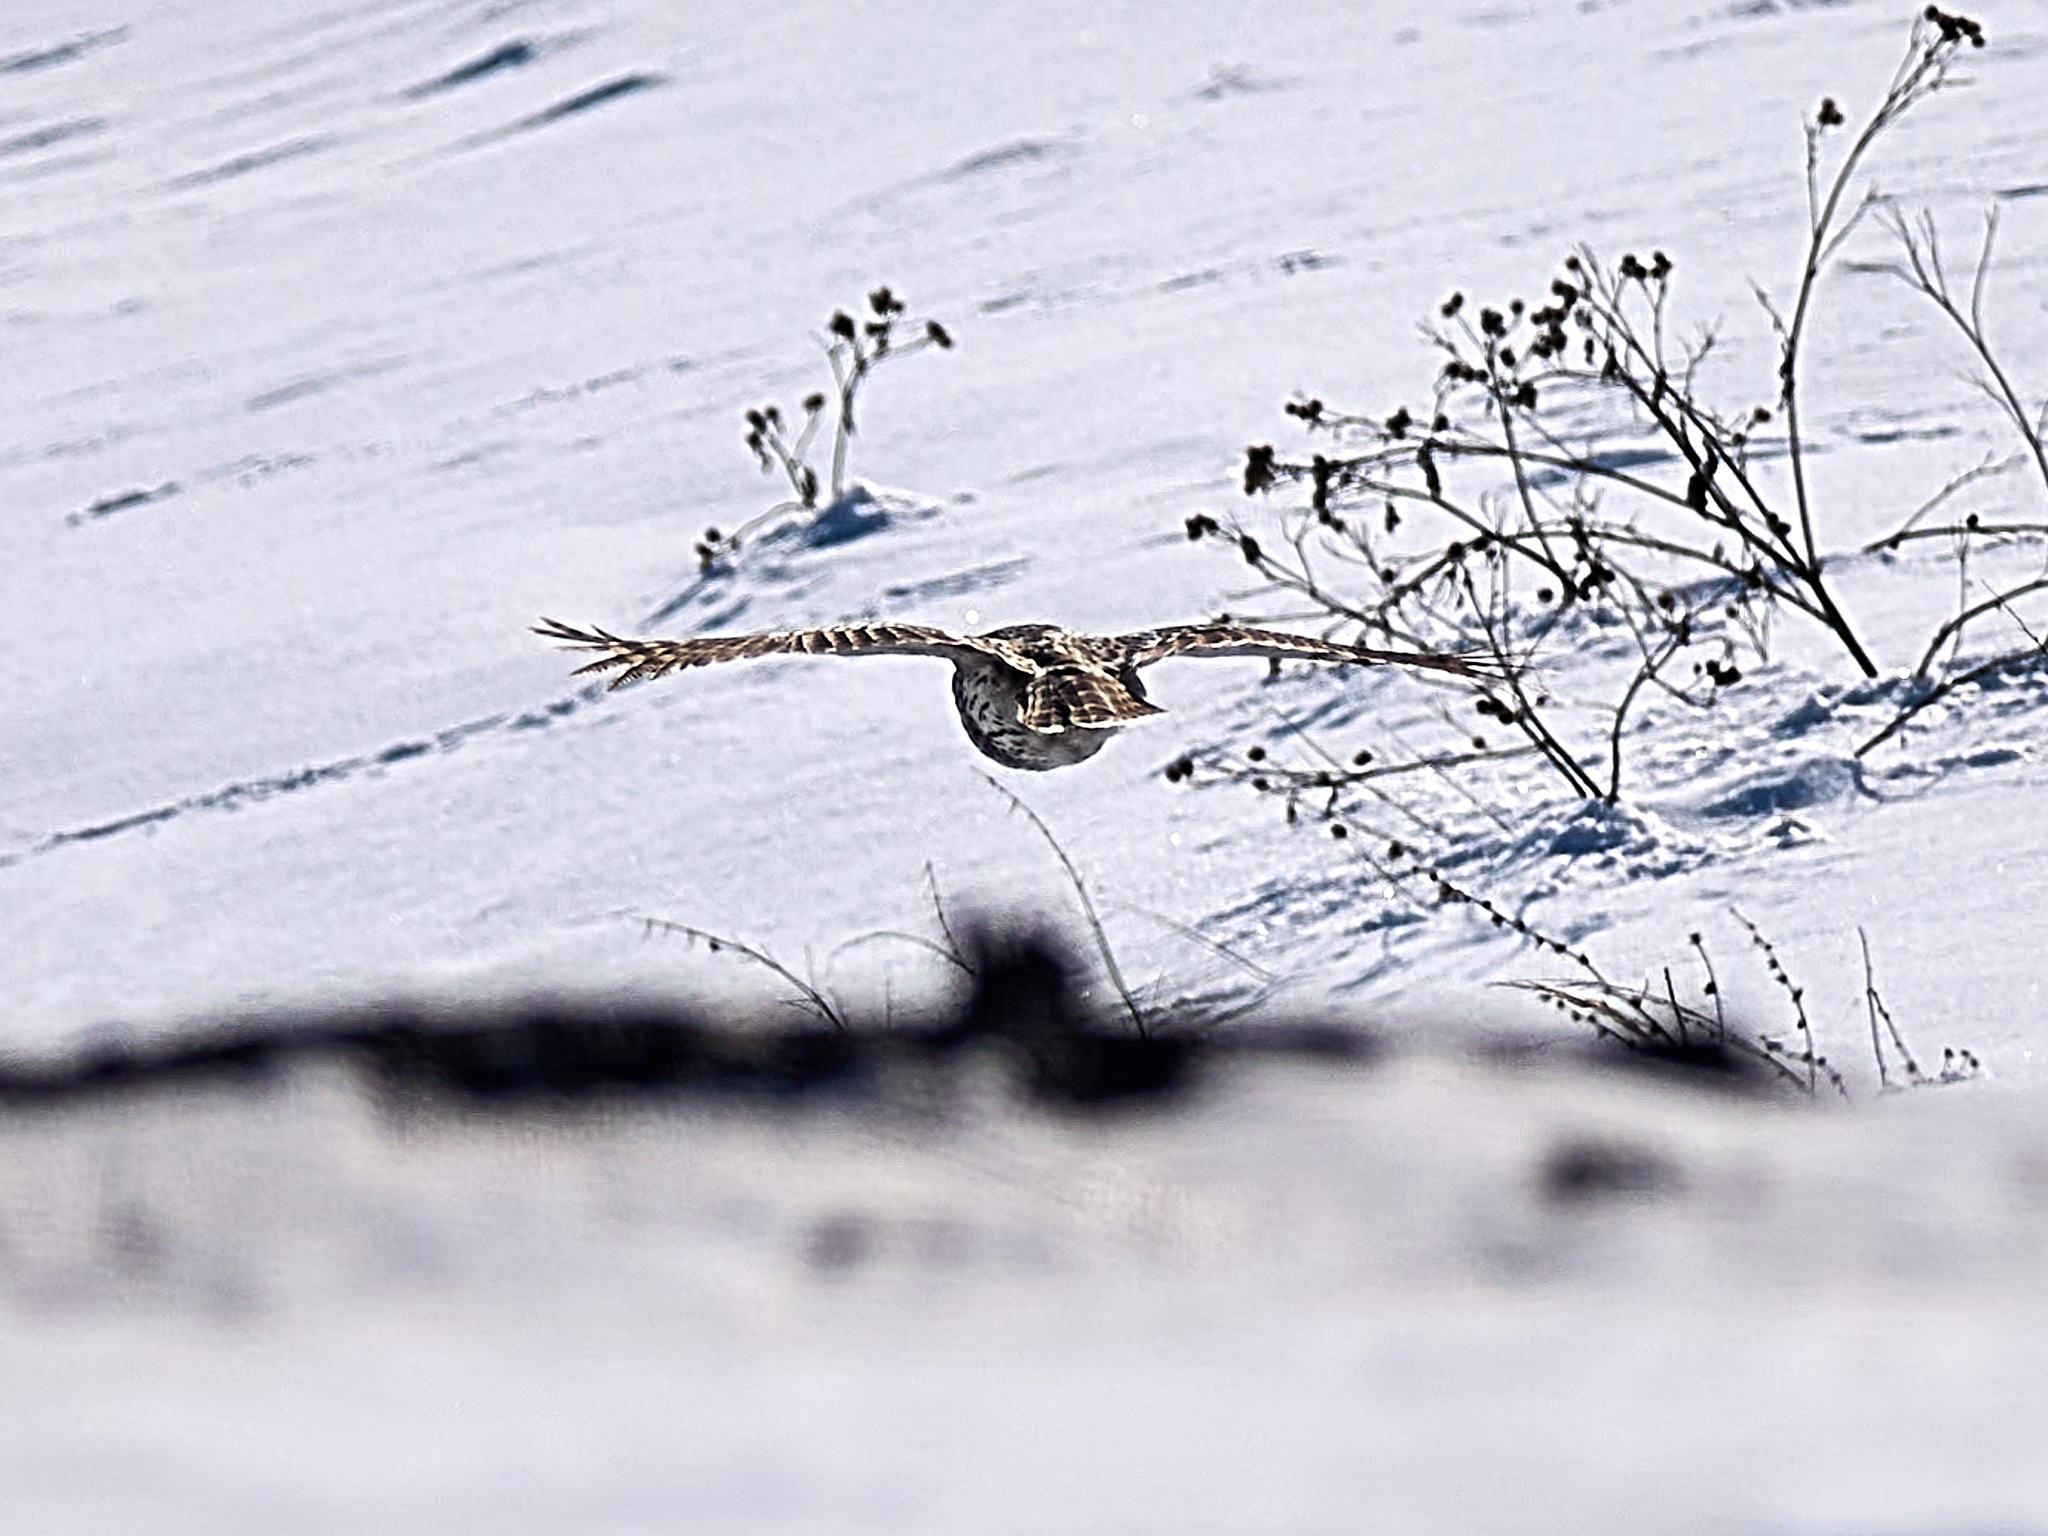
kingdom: Animalia
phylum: Chordata
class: Aves
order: Strigiformes
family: Strigidae
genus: Strix
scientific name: Strix uralensis
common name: Ural owl
